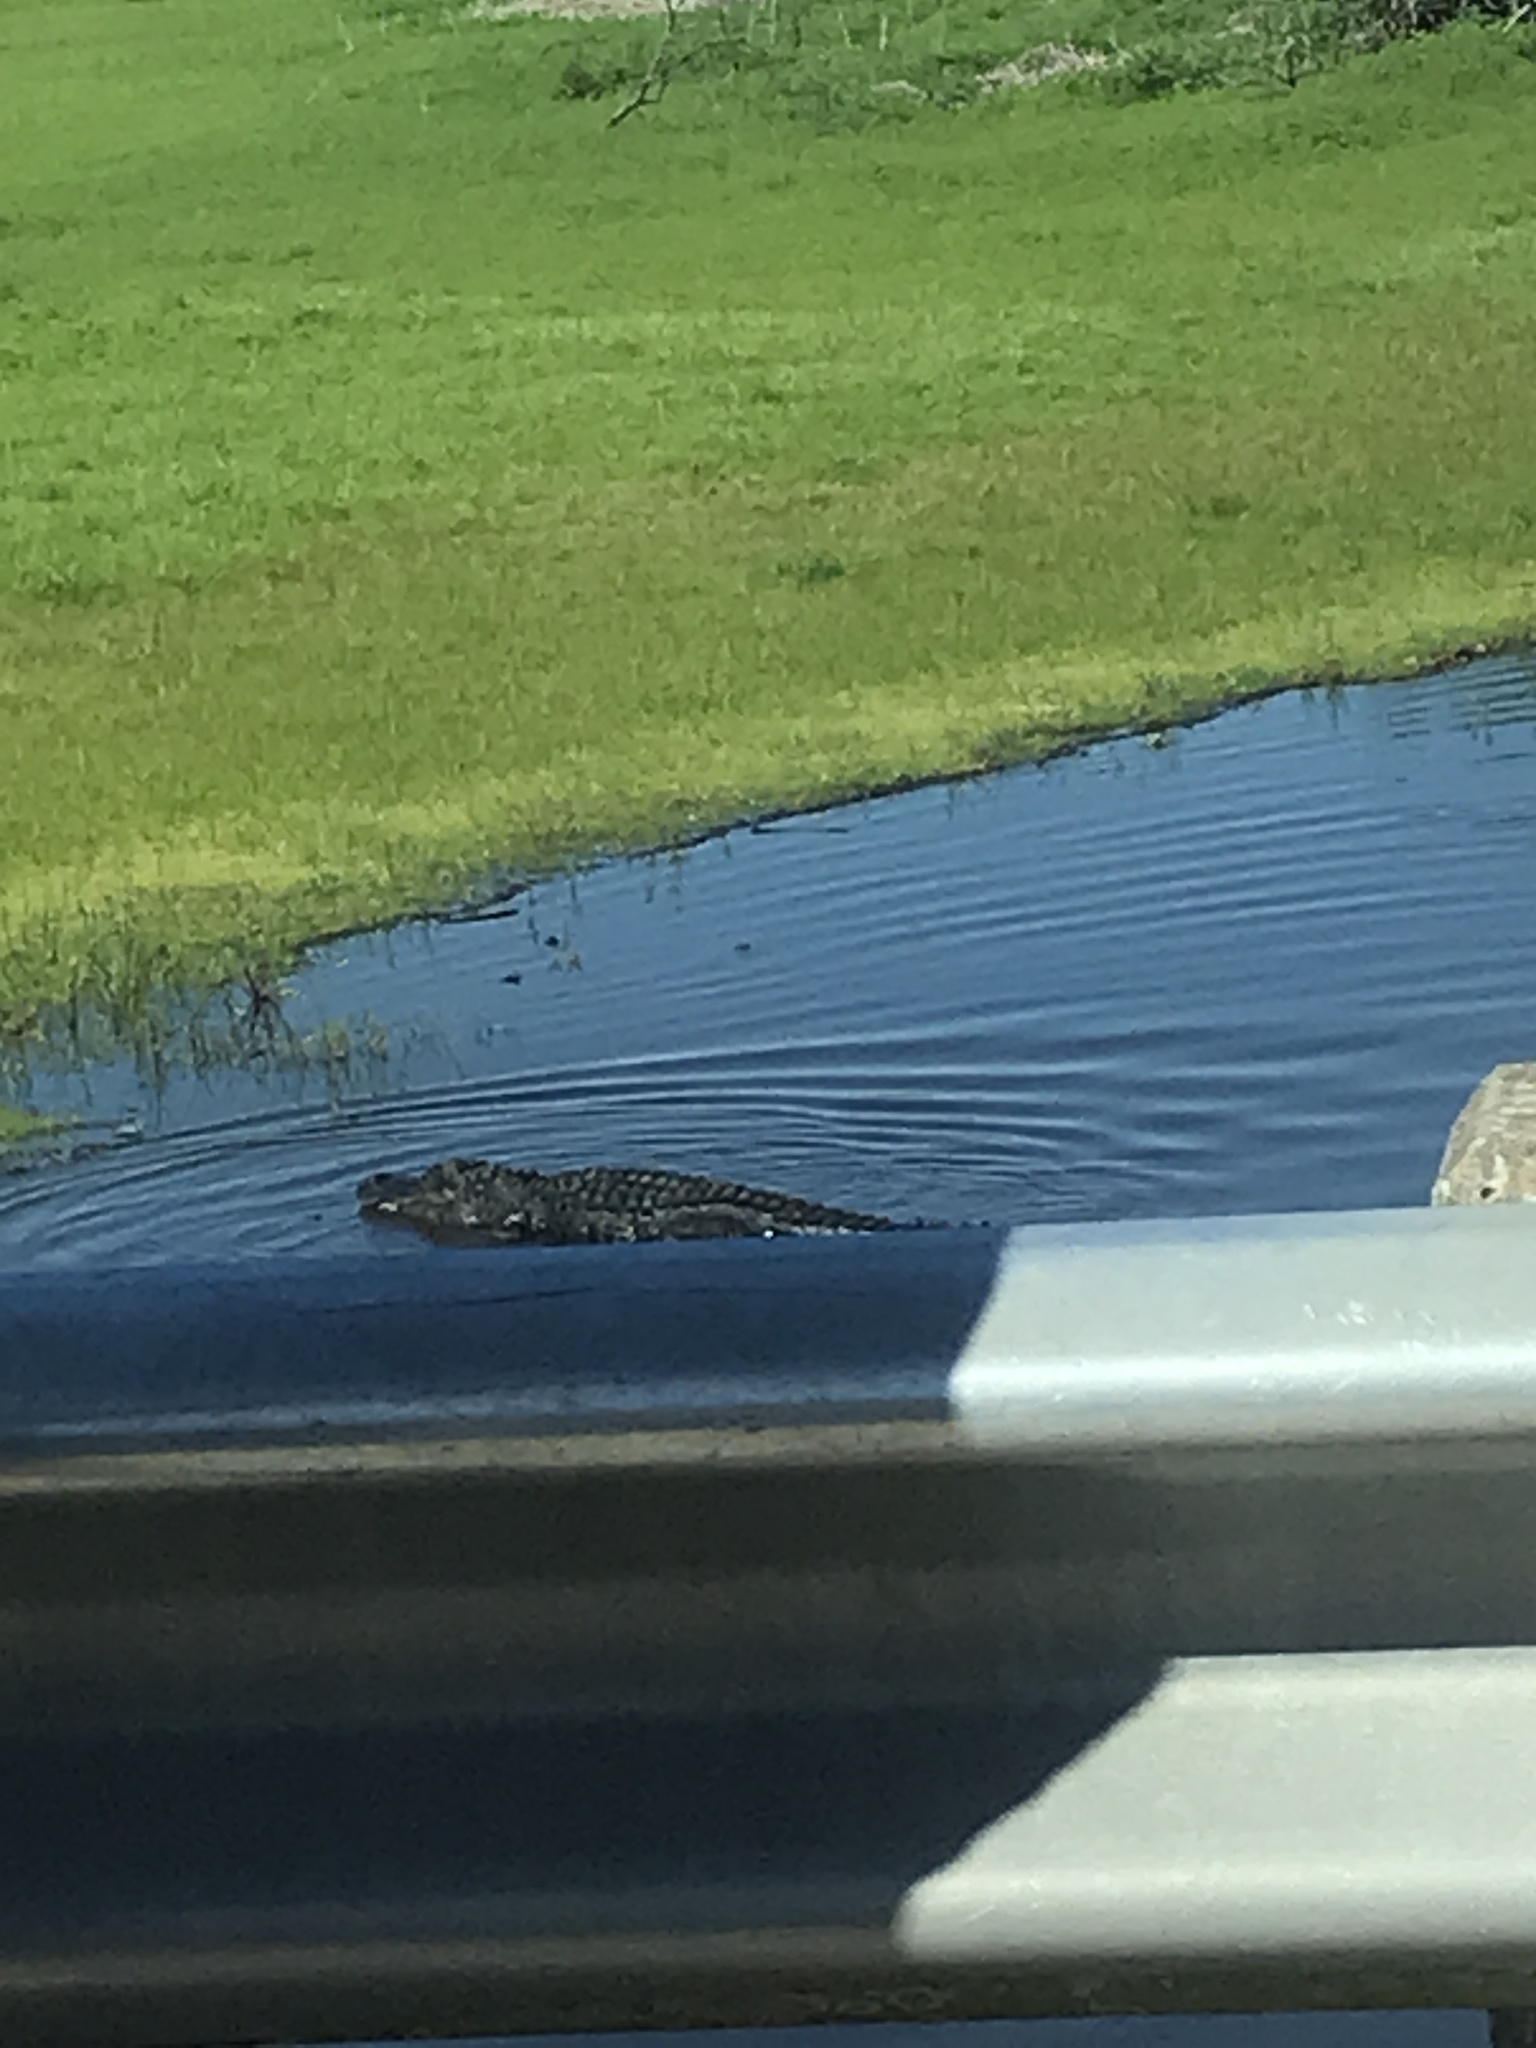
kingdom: Animalia
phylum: Chordata
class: Crocodylia
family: Alligatoridae
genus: Alligator
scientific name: Alligator mississippiensis
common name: American alligator
